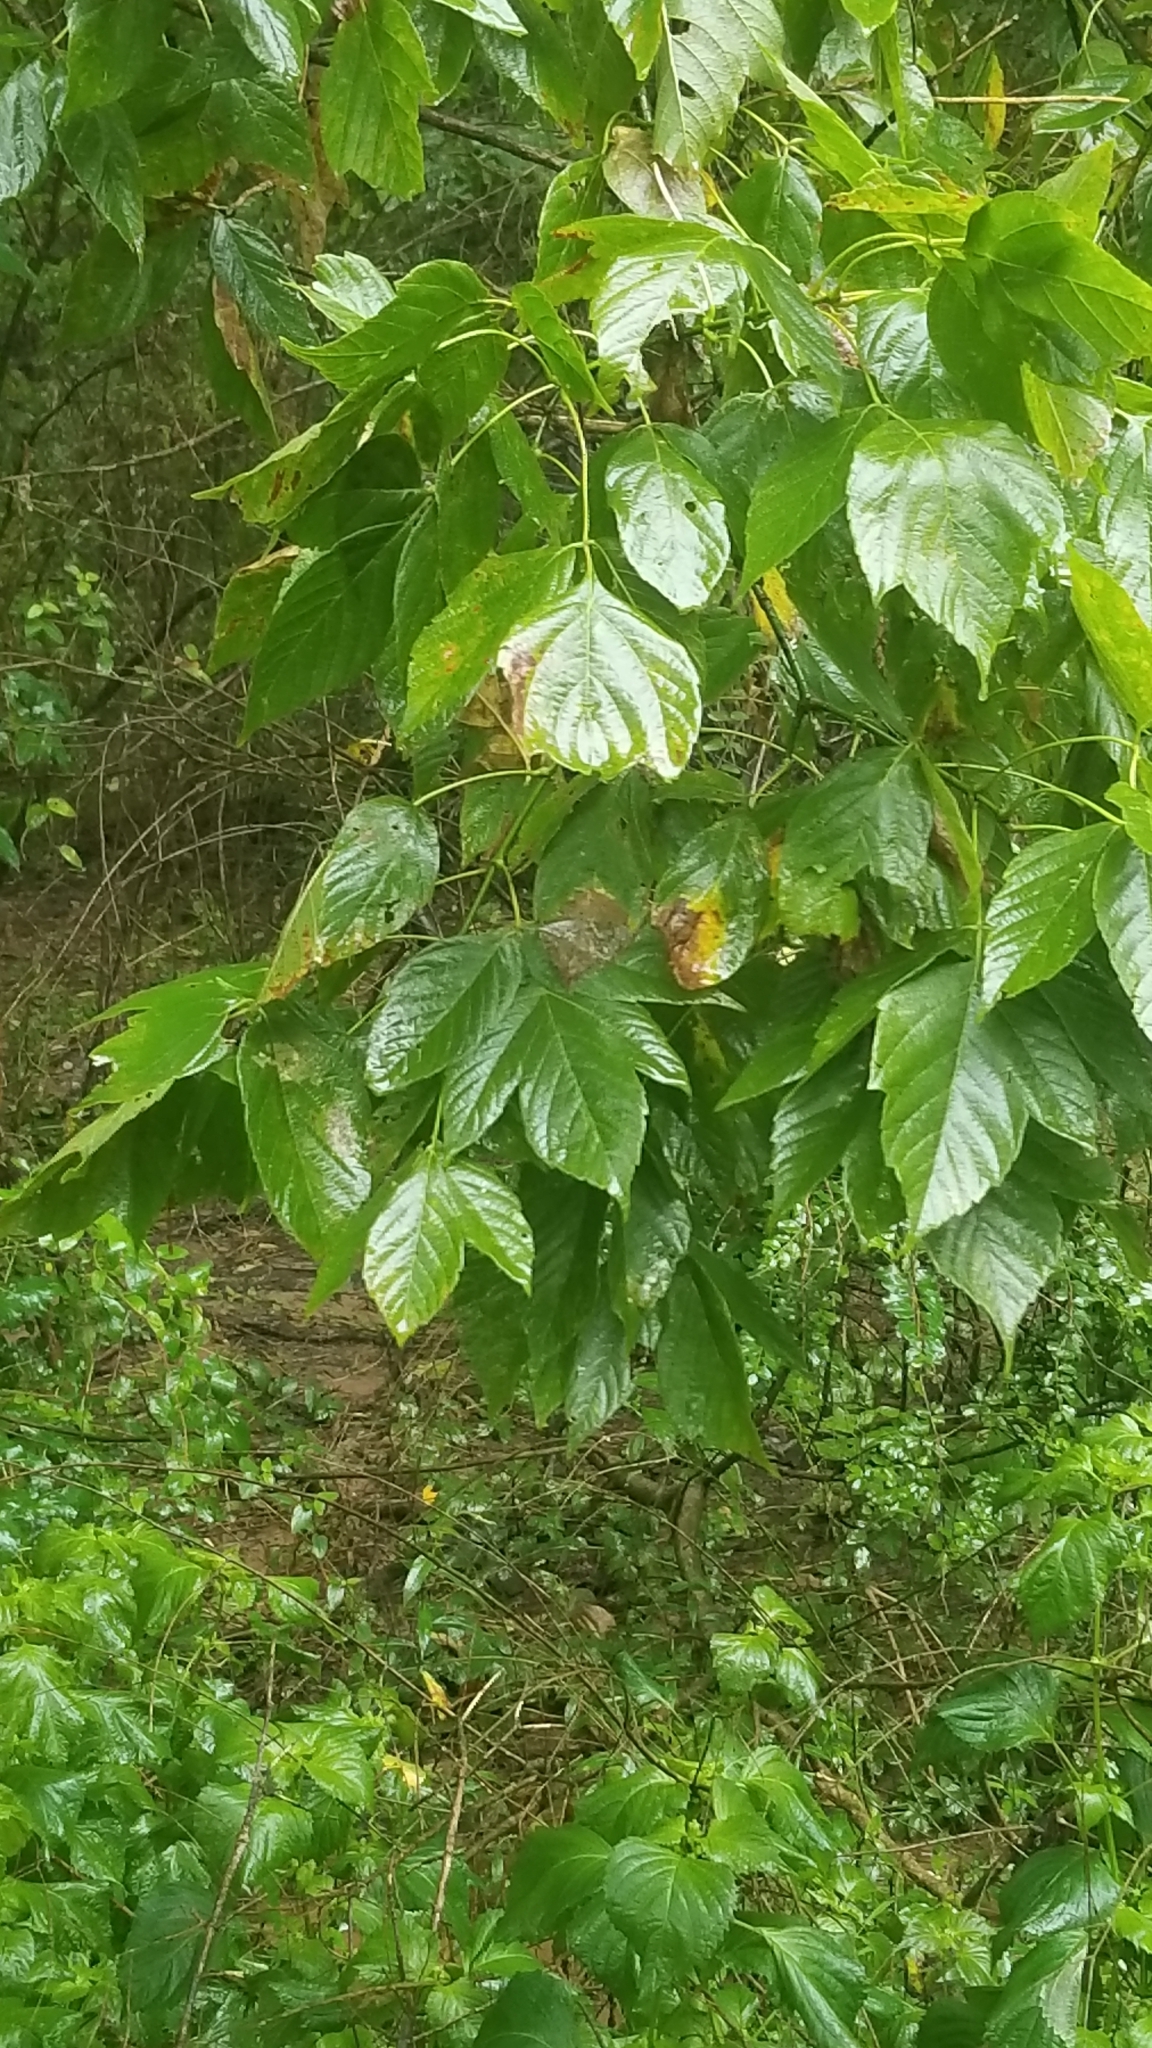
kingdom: Plantae
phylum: Tracheophyta
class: Magnoliopsida
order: Sapindales
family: Sapindaceae
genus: Acer
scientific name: Acer negundo
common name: Ashleaf maple
